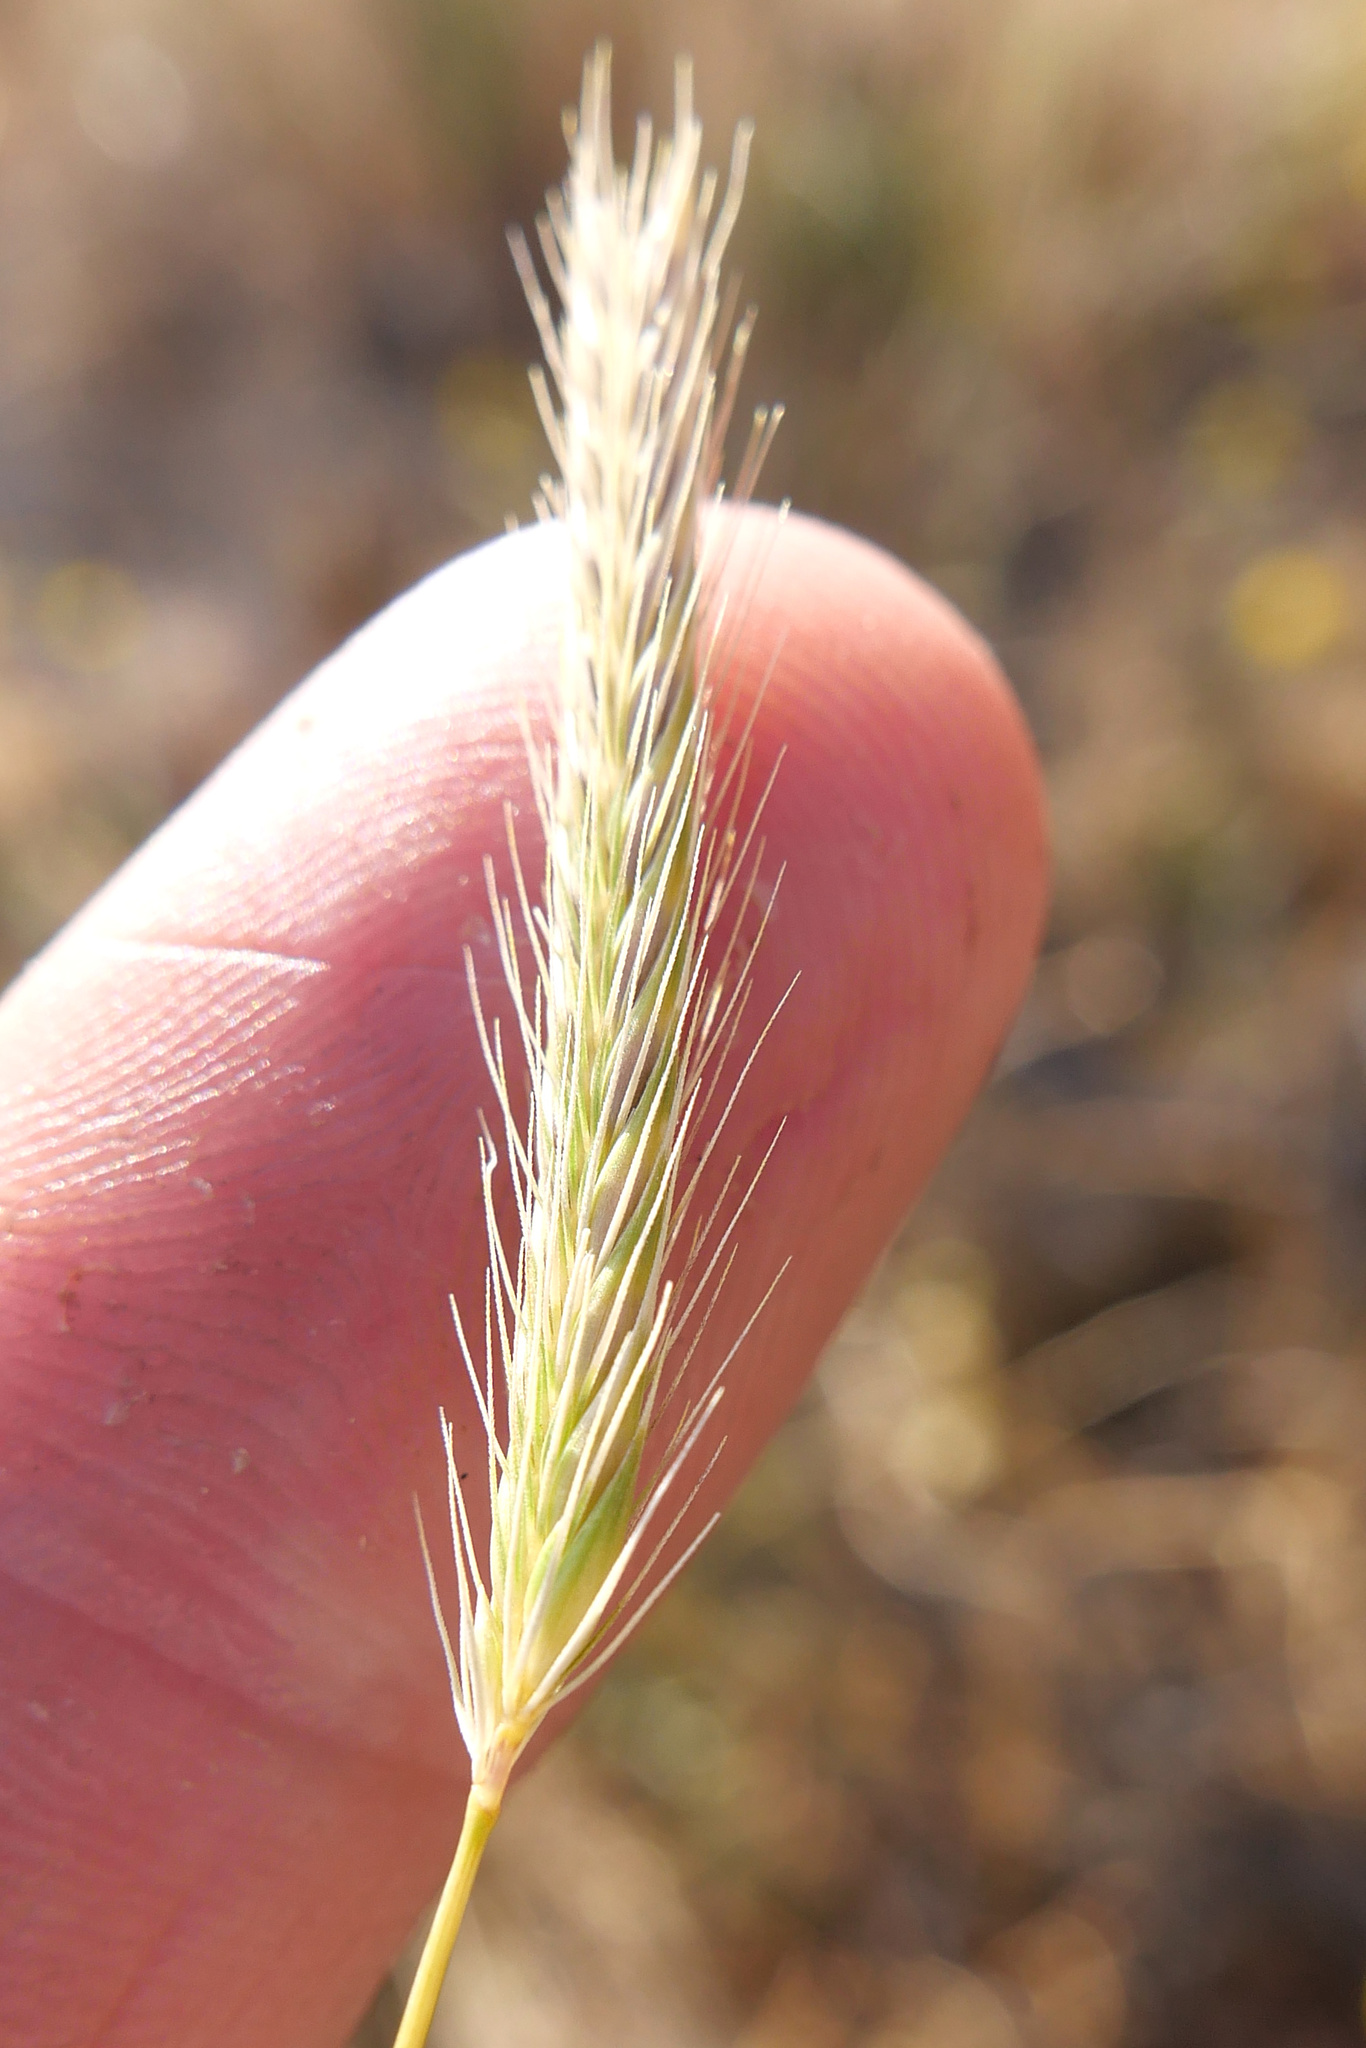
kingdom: Plantae
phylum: Tracheophyta
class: Liliopsida
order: Poales
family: Poaceae
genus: Hordeum
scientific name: Hordeum depressum
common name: Low barley
